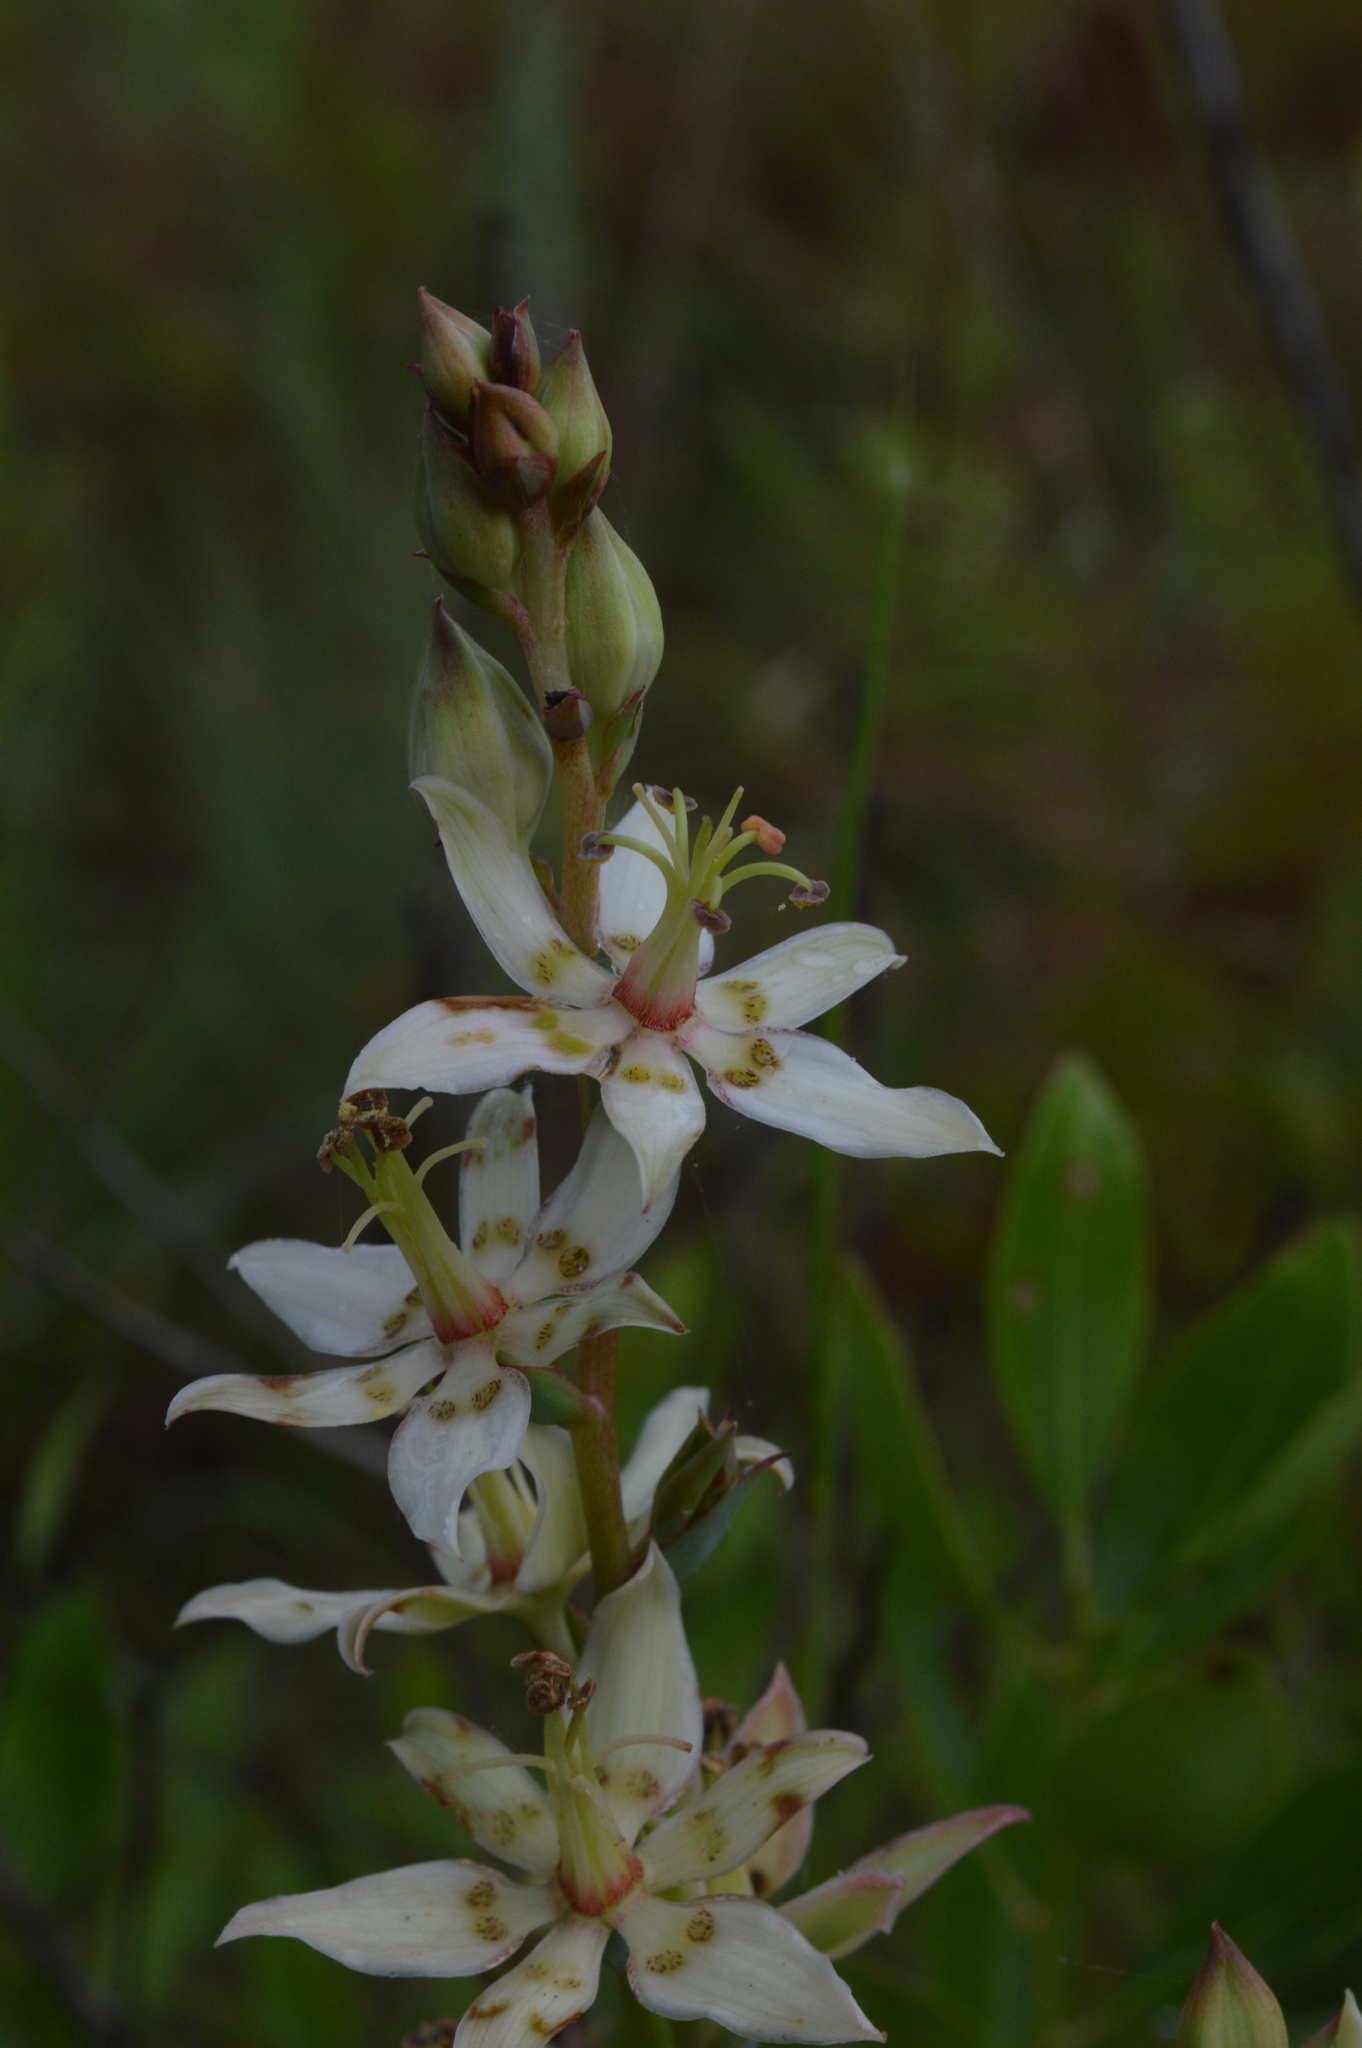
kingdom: Plantae
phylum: Tracheophyta
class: Liliopsida
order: Liliales
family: Melanthiaceae
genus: Zigadenus
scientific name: Zigadenus glaberrimus
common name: Sandbog death camas
